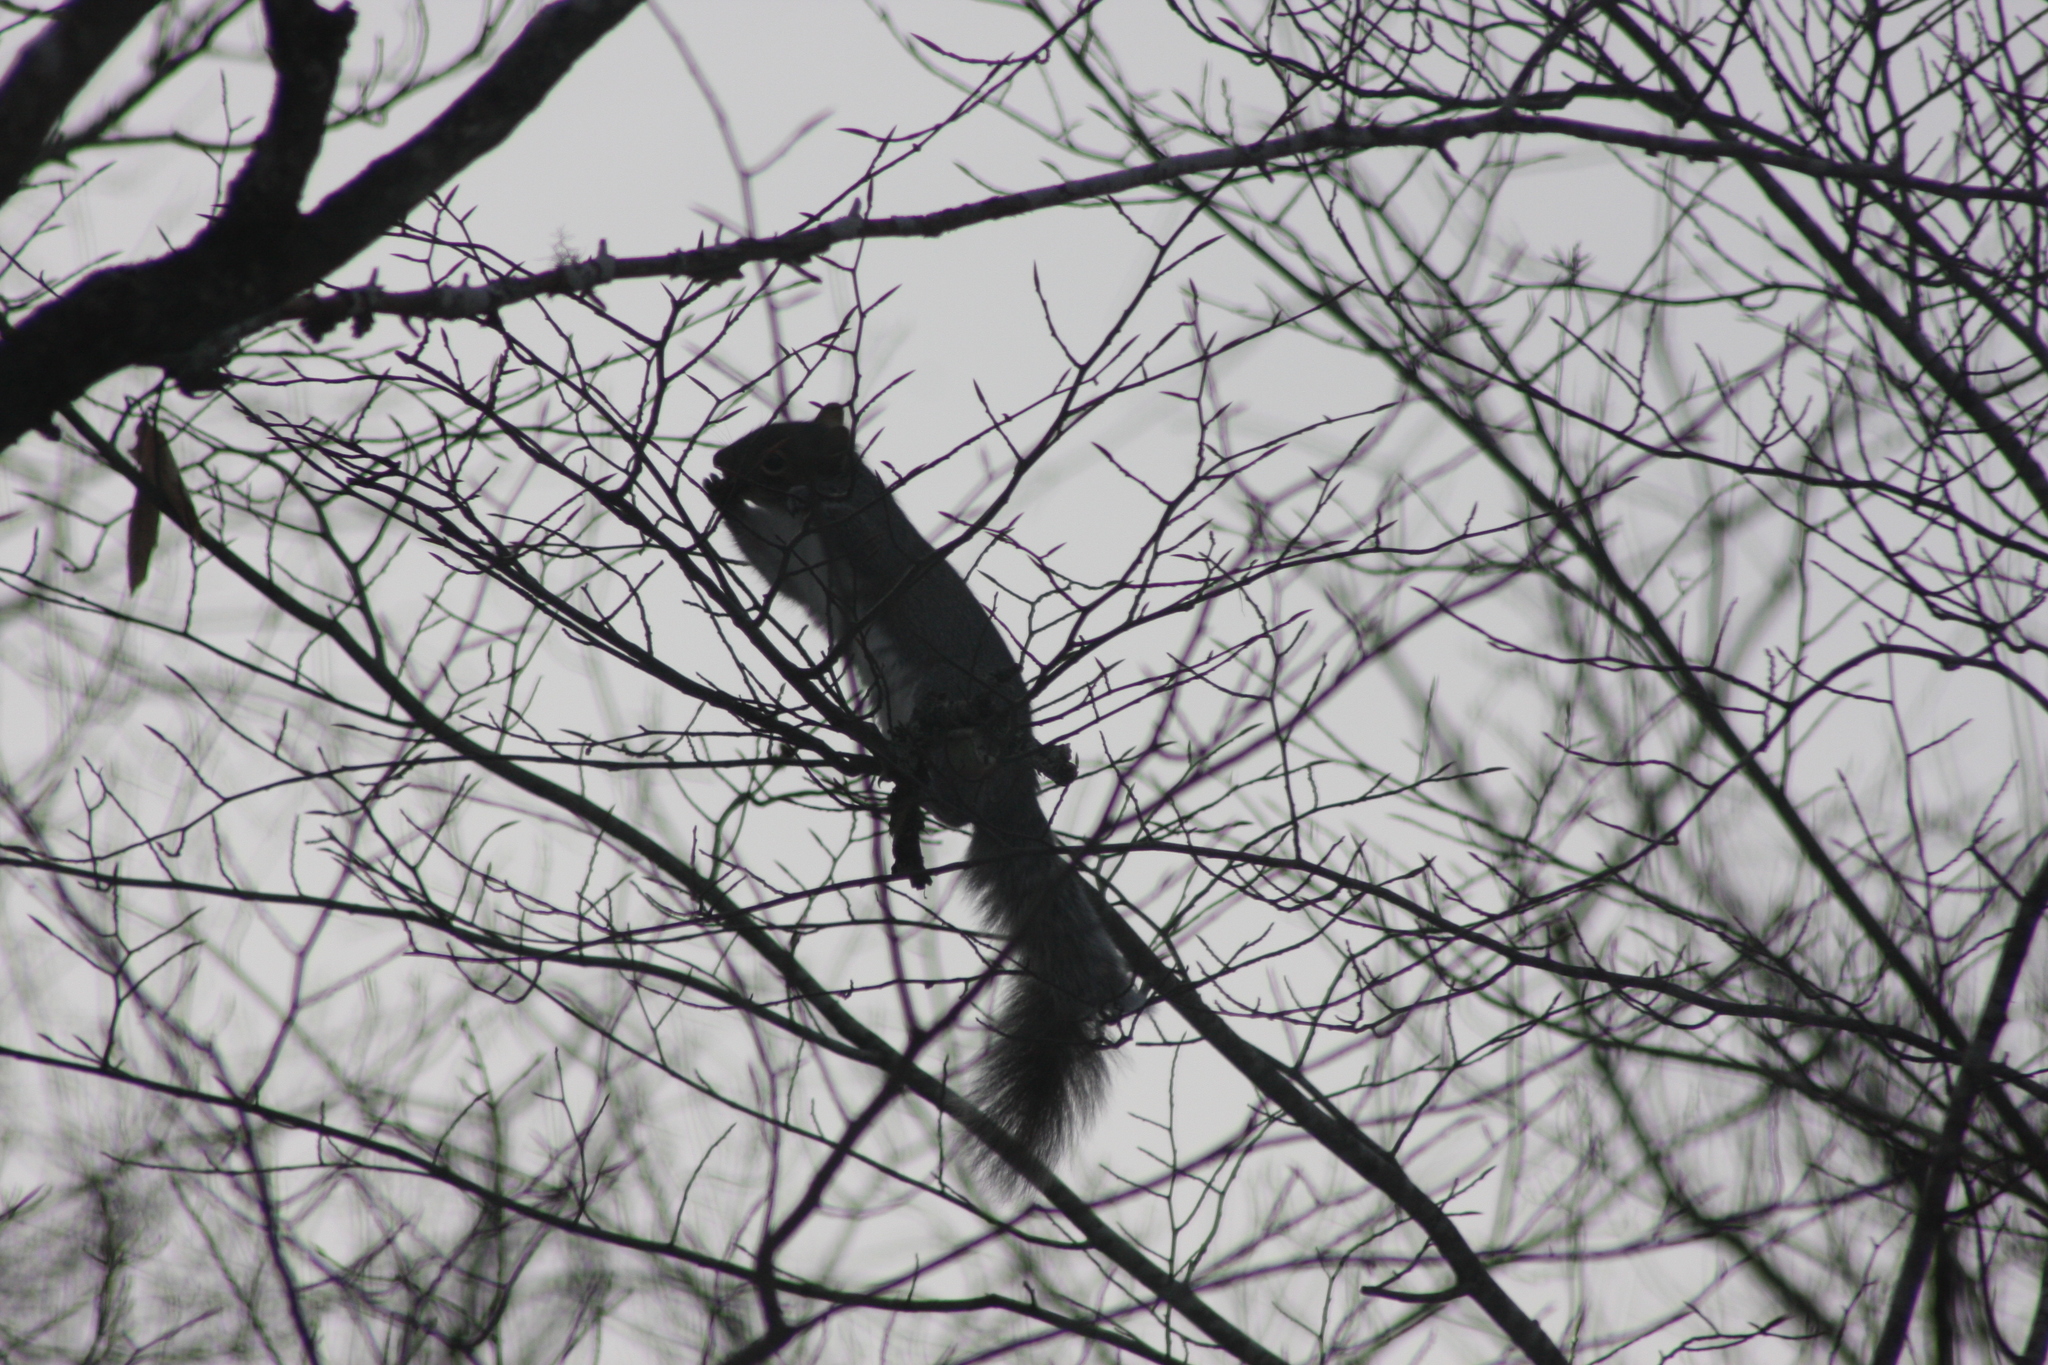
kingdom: Animalia
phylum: Chordata
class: Mammalia
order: Rodentia
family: Sciuridae
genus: Sciurus
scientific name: Sciurus carolinensis
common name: Eastern gray squirrel
